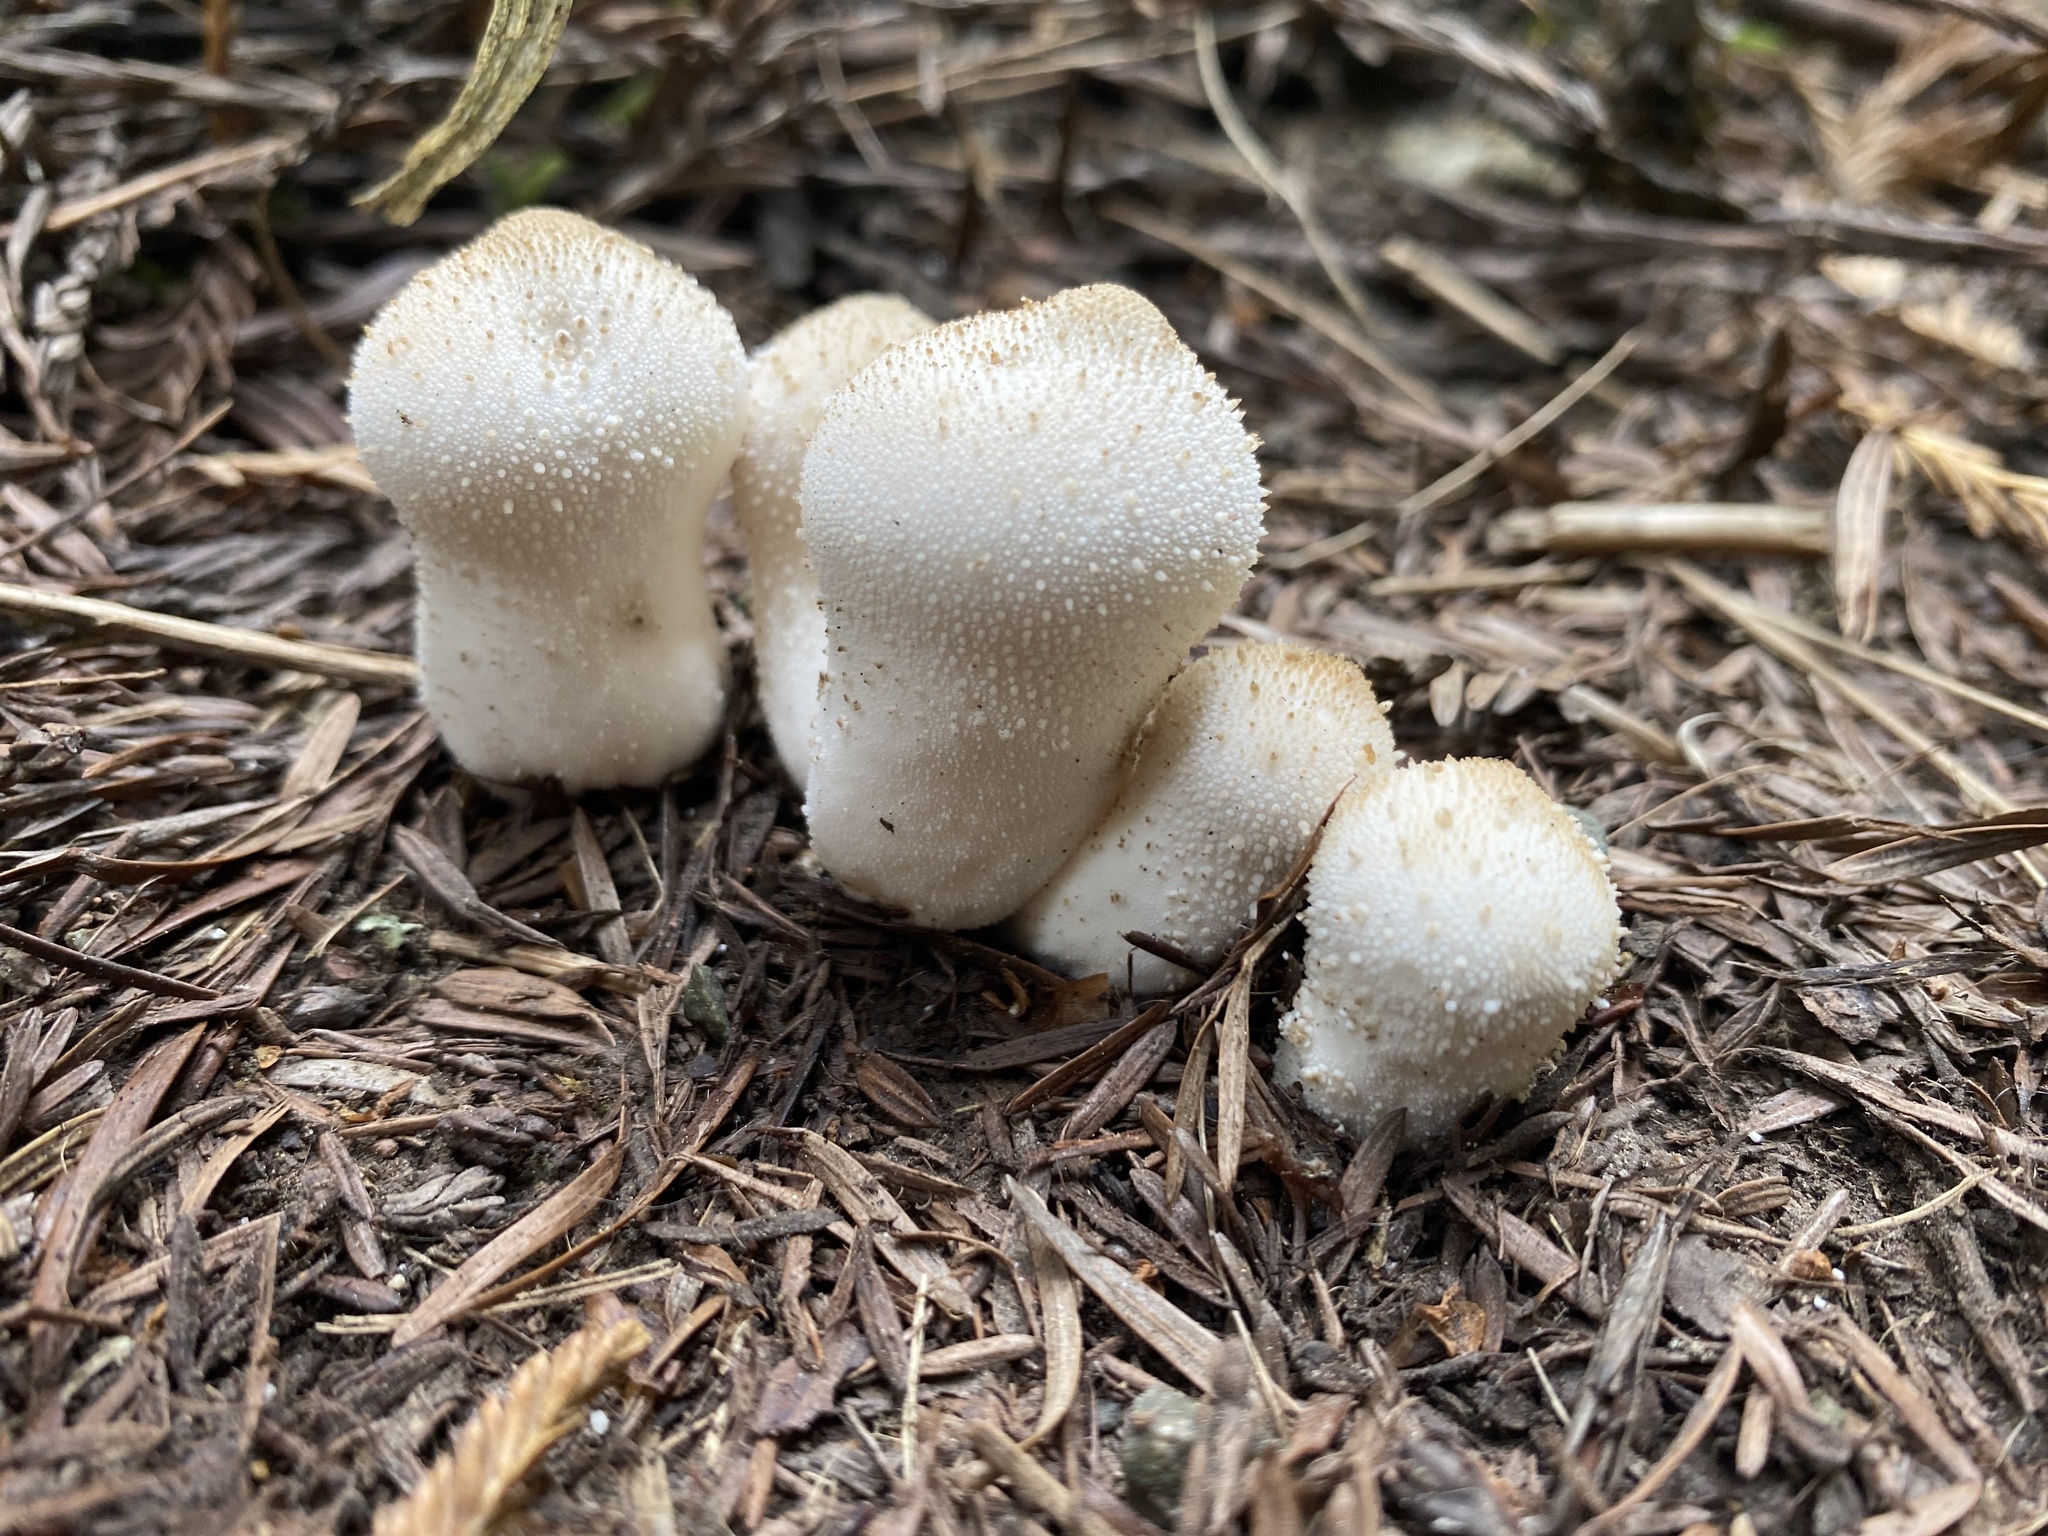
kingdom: Fungi
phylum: Basidiomycota
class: Agaricomycetes
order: Agaricales
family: Lycoperdaceae
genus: Lycoperdon
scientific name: Lycoperdon perlatum
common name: Common puffball
